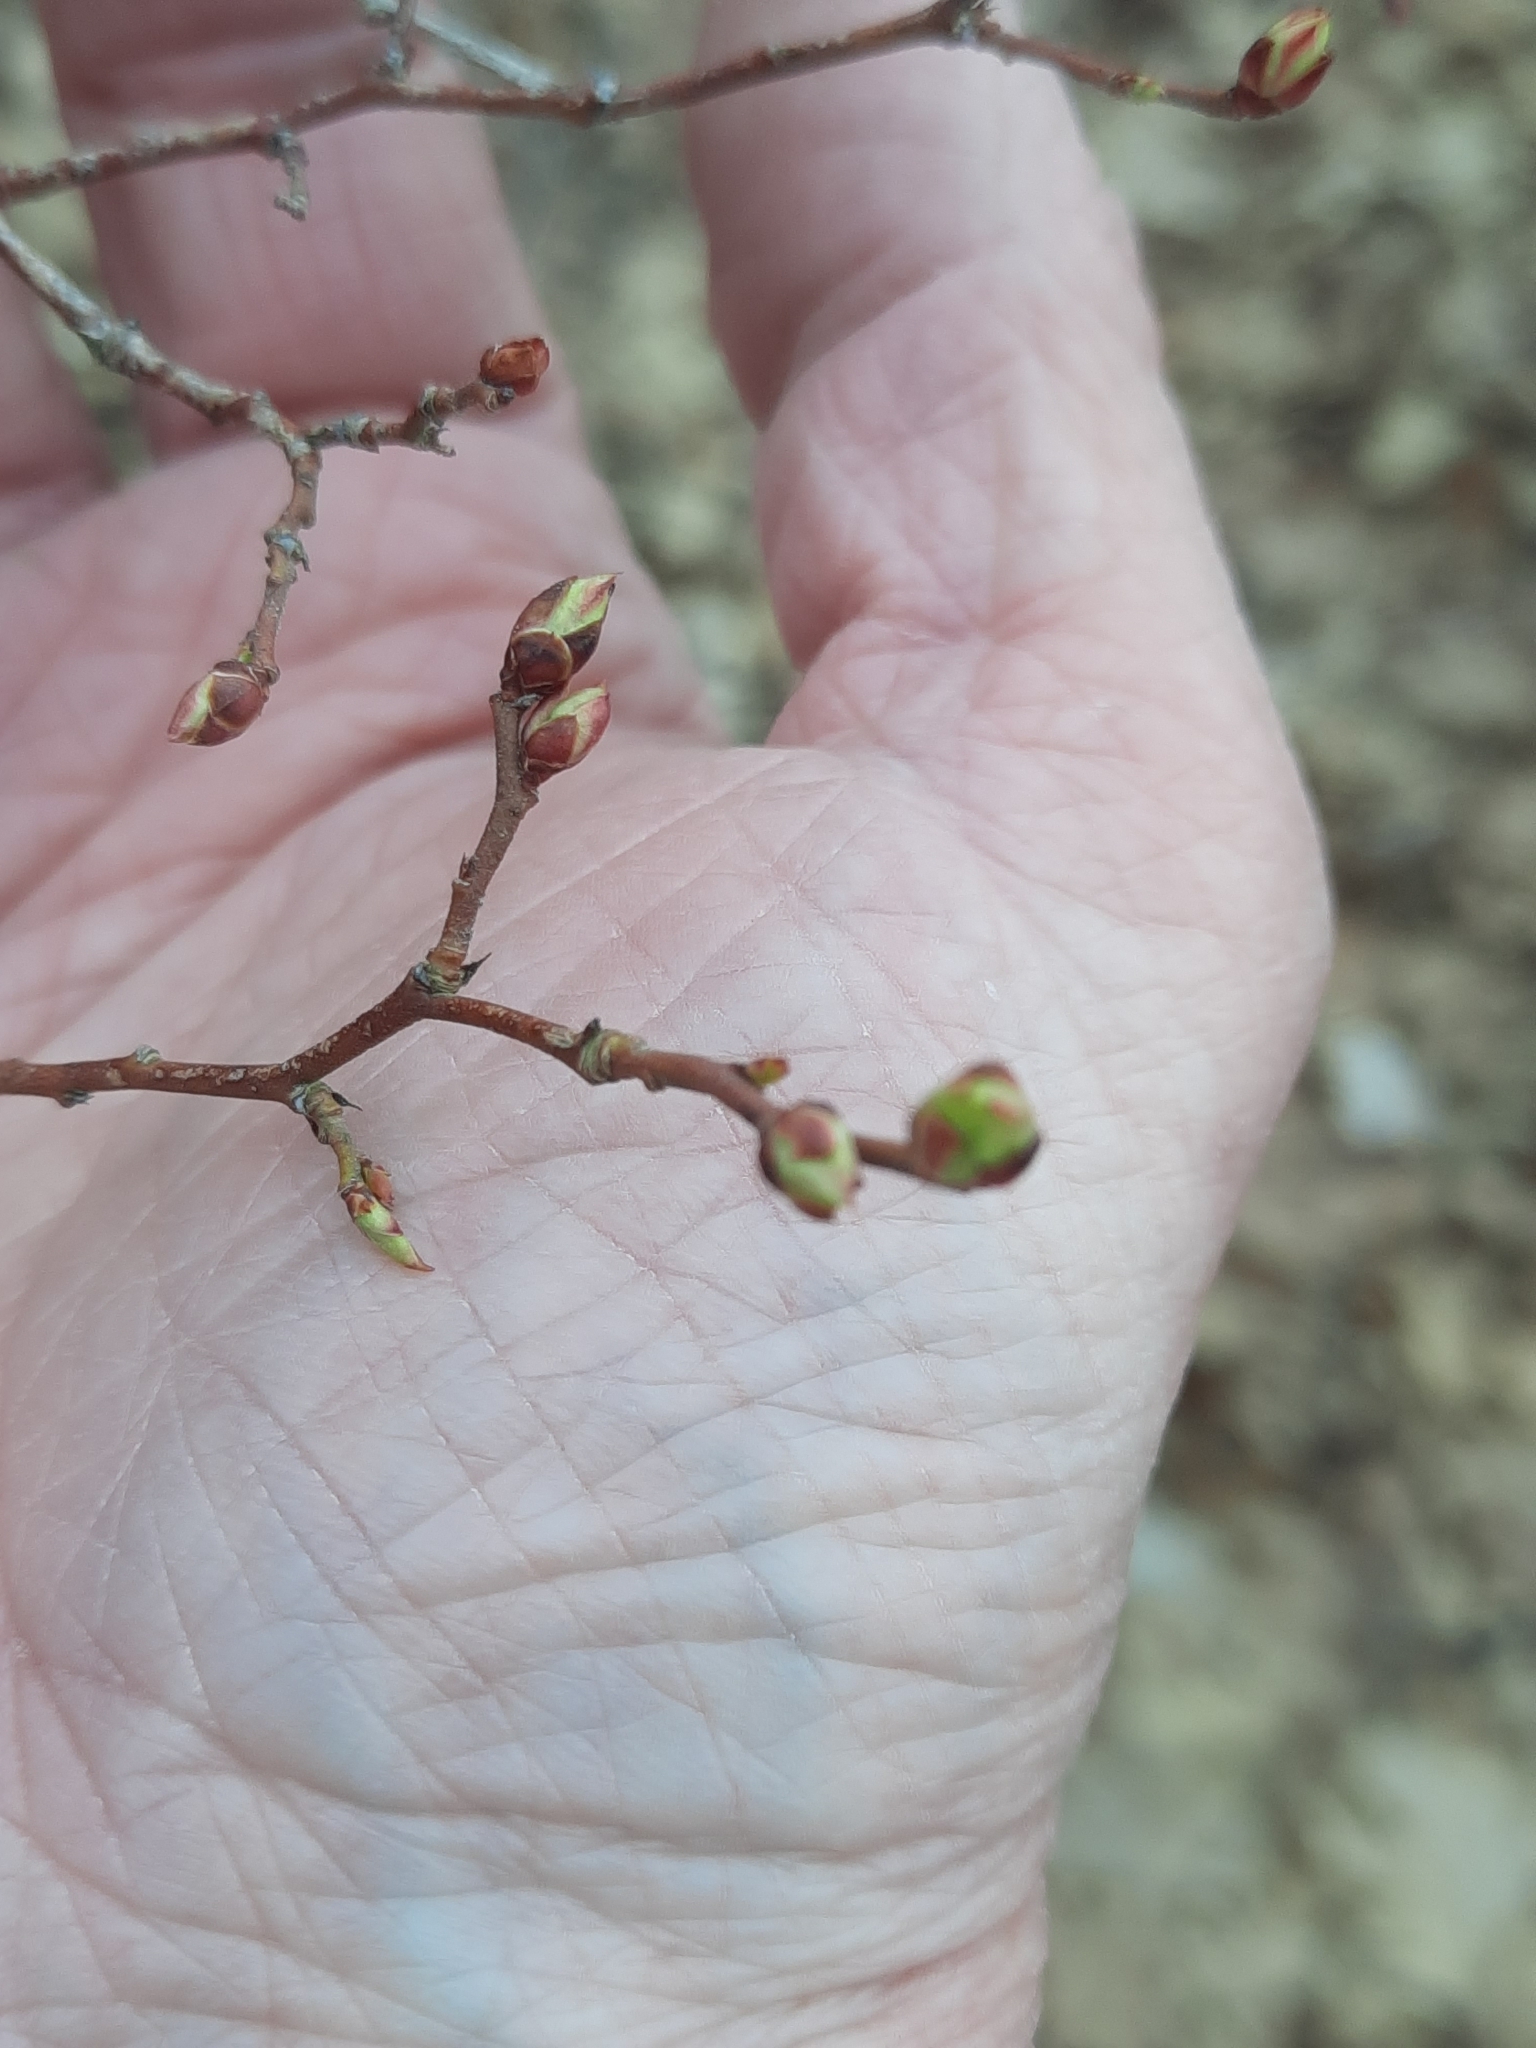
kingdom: Plantae
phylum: Tracheophyta
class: Magnoliopsida
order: Ericales
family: Ericaceae
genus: Vaccinium
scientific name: Vaccinium corymbosum
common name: Blueberry
